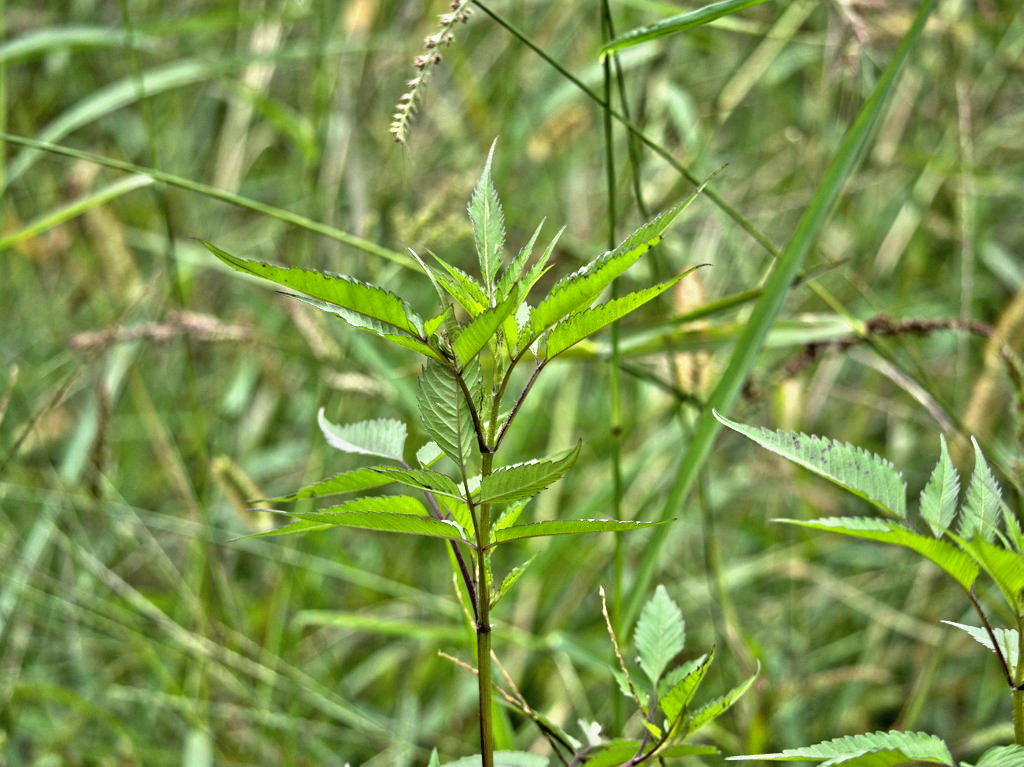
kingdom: Plantae
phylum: Tracheophyta
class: Magnoliopsida
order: Asterales
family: Asteraceae
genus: Bidens
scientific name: Bidens frondosa
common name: Beggarticks
